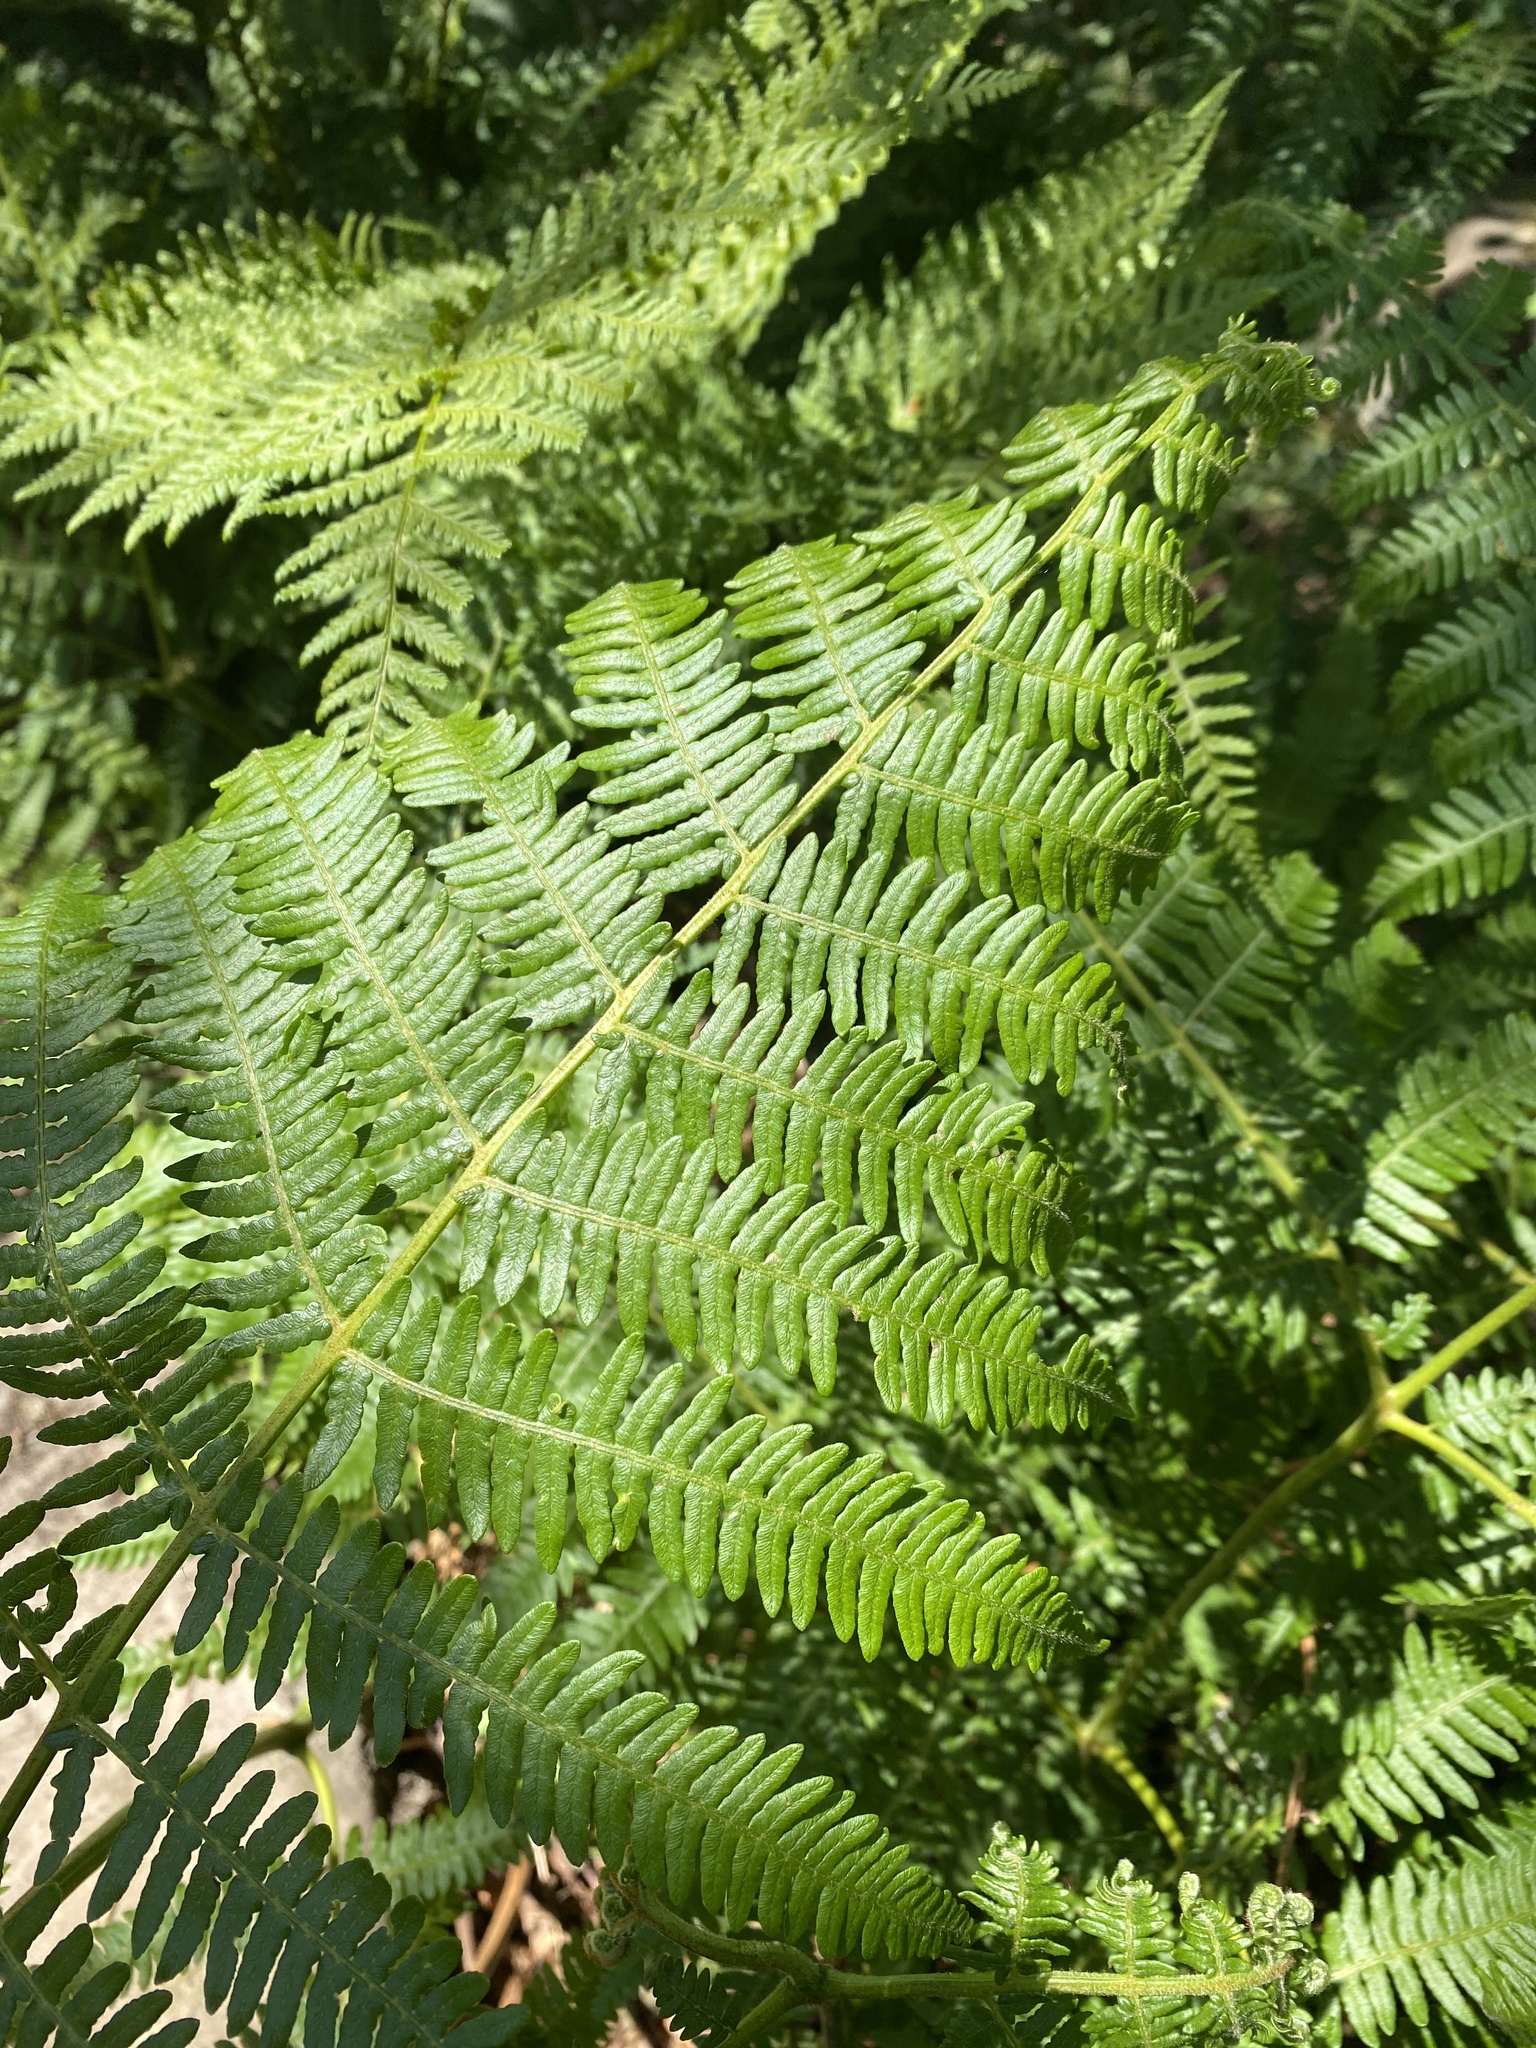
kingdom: Plantae
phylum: Tracheophyta
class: Polypodiopsida
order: Polypodiales
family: Dennstaedtiaceae
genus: Pteridium
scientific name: Pteridium aquilinum
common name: Bracken
